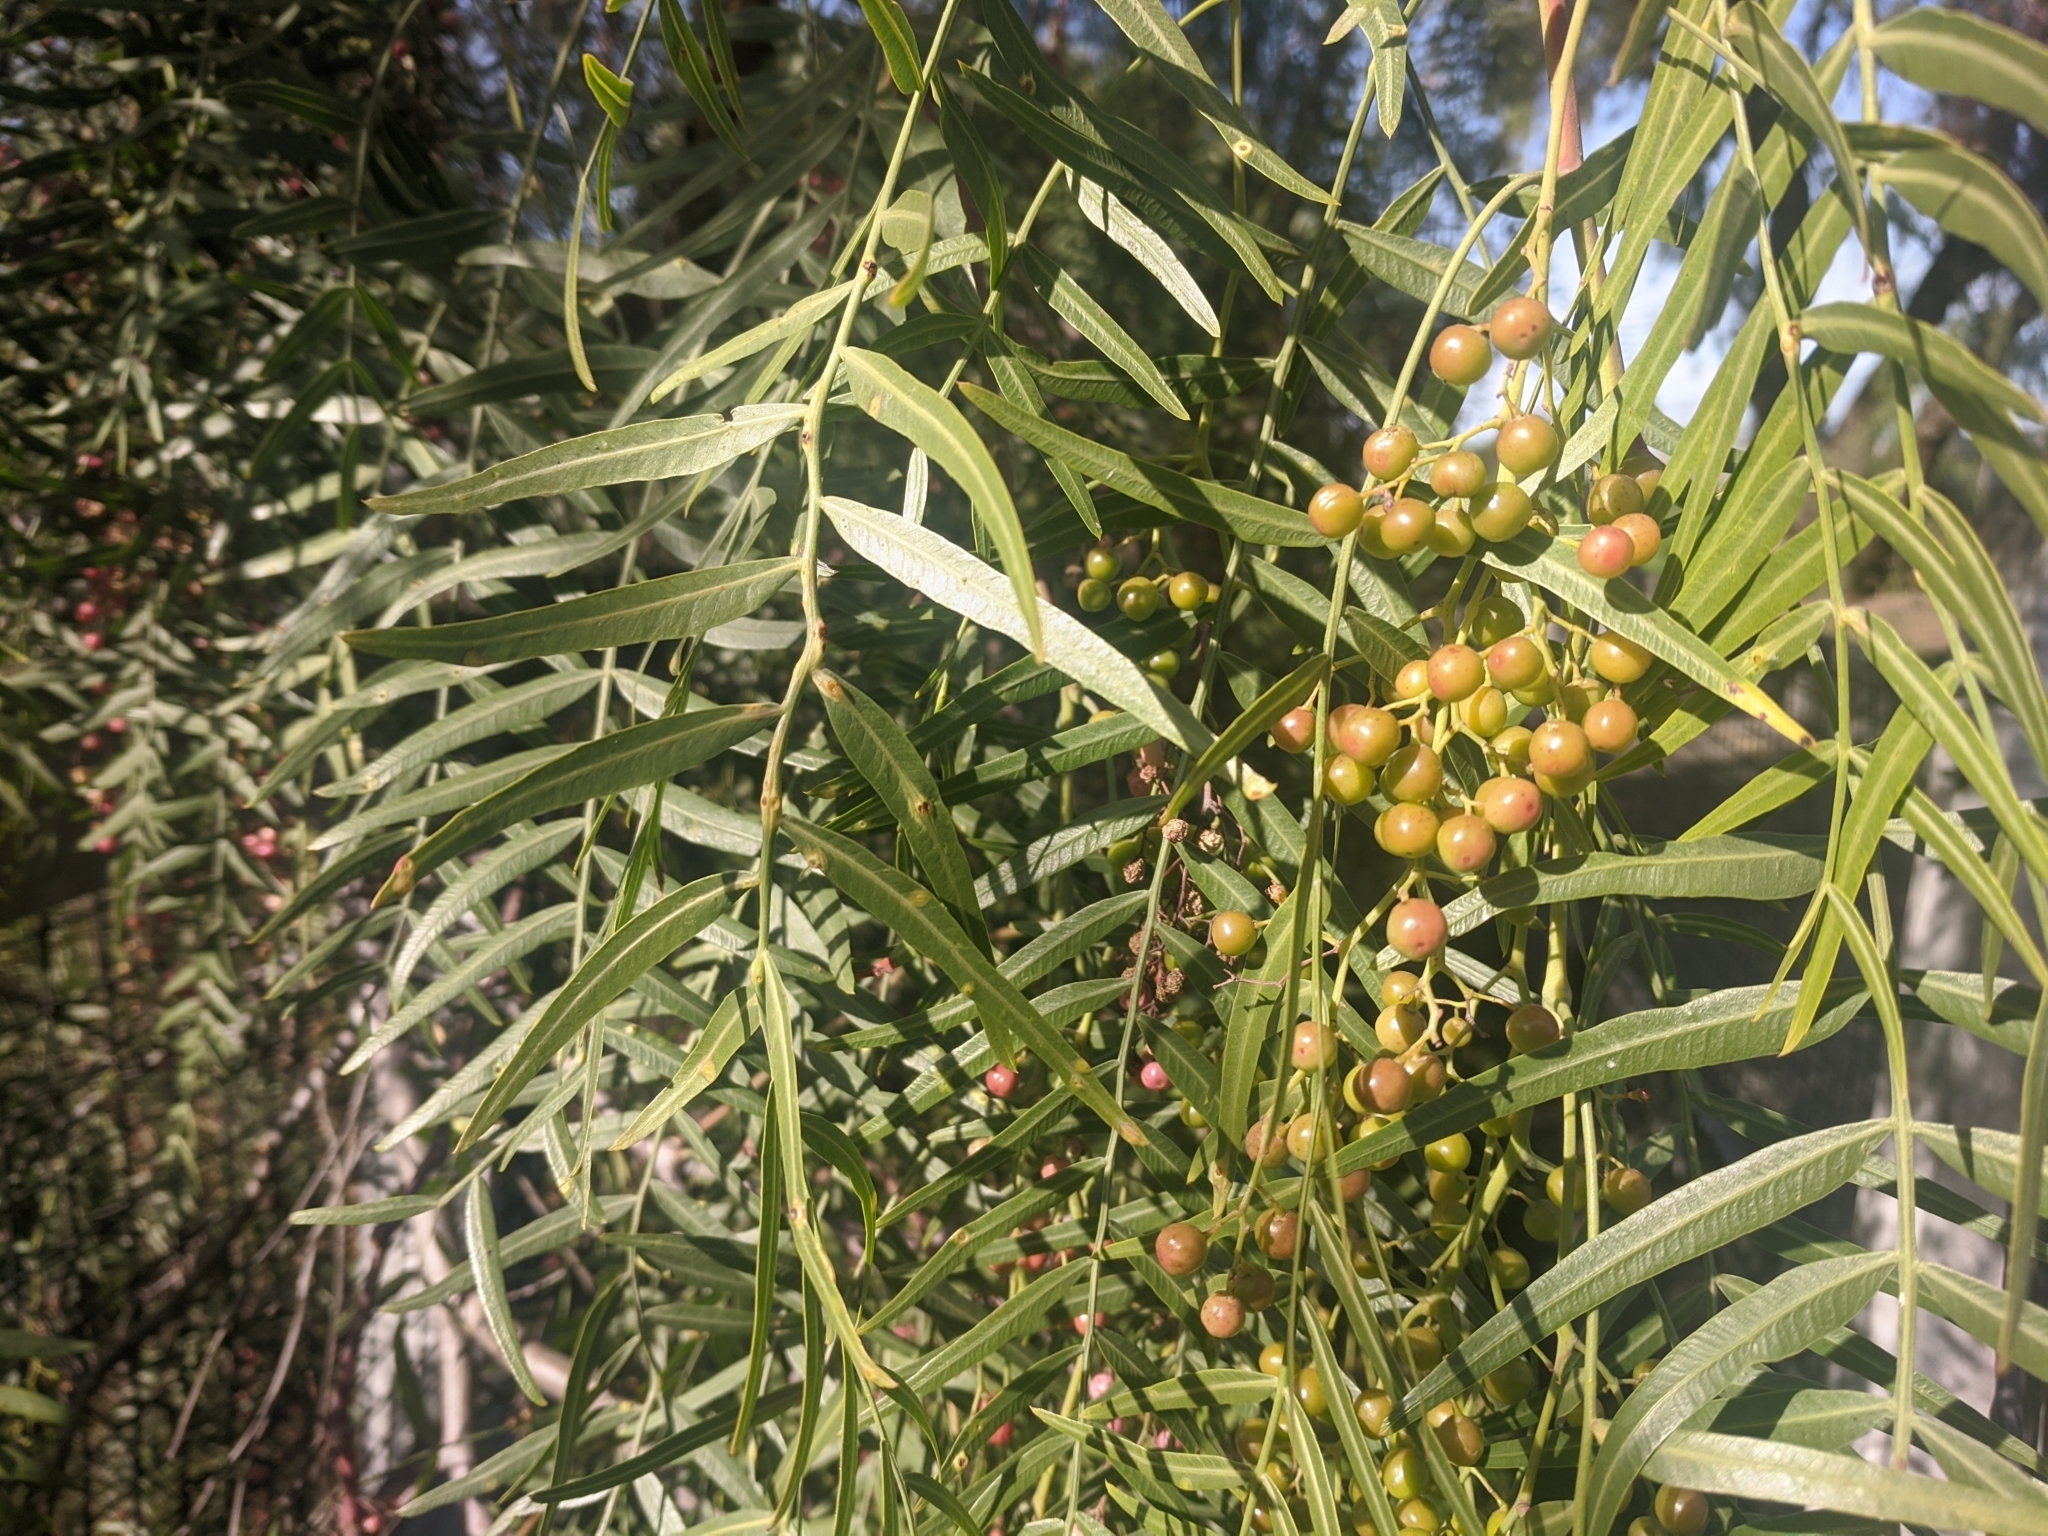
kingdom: Plantae
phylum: Tracheophyta
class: Magnoliopsida
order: Sapindales
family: Anacardiaceae
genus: Schinus
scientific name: Schinus molle
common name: Peruvian peppertree
